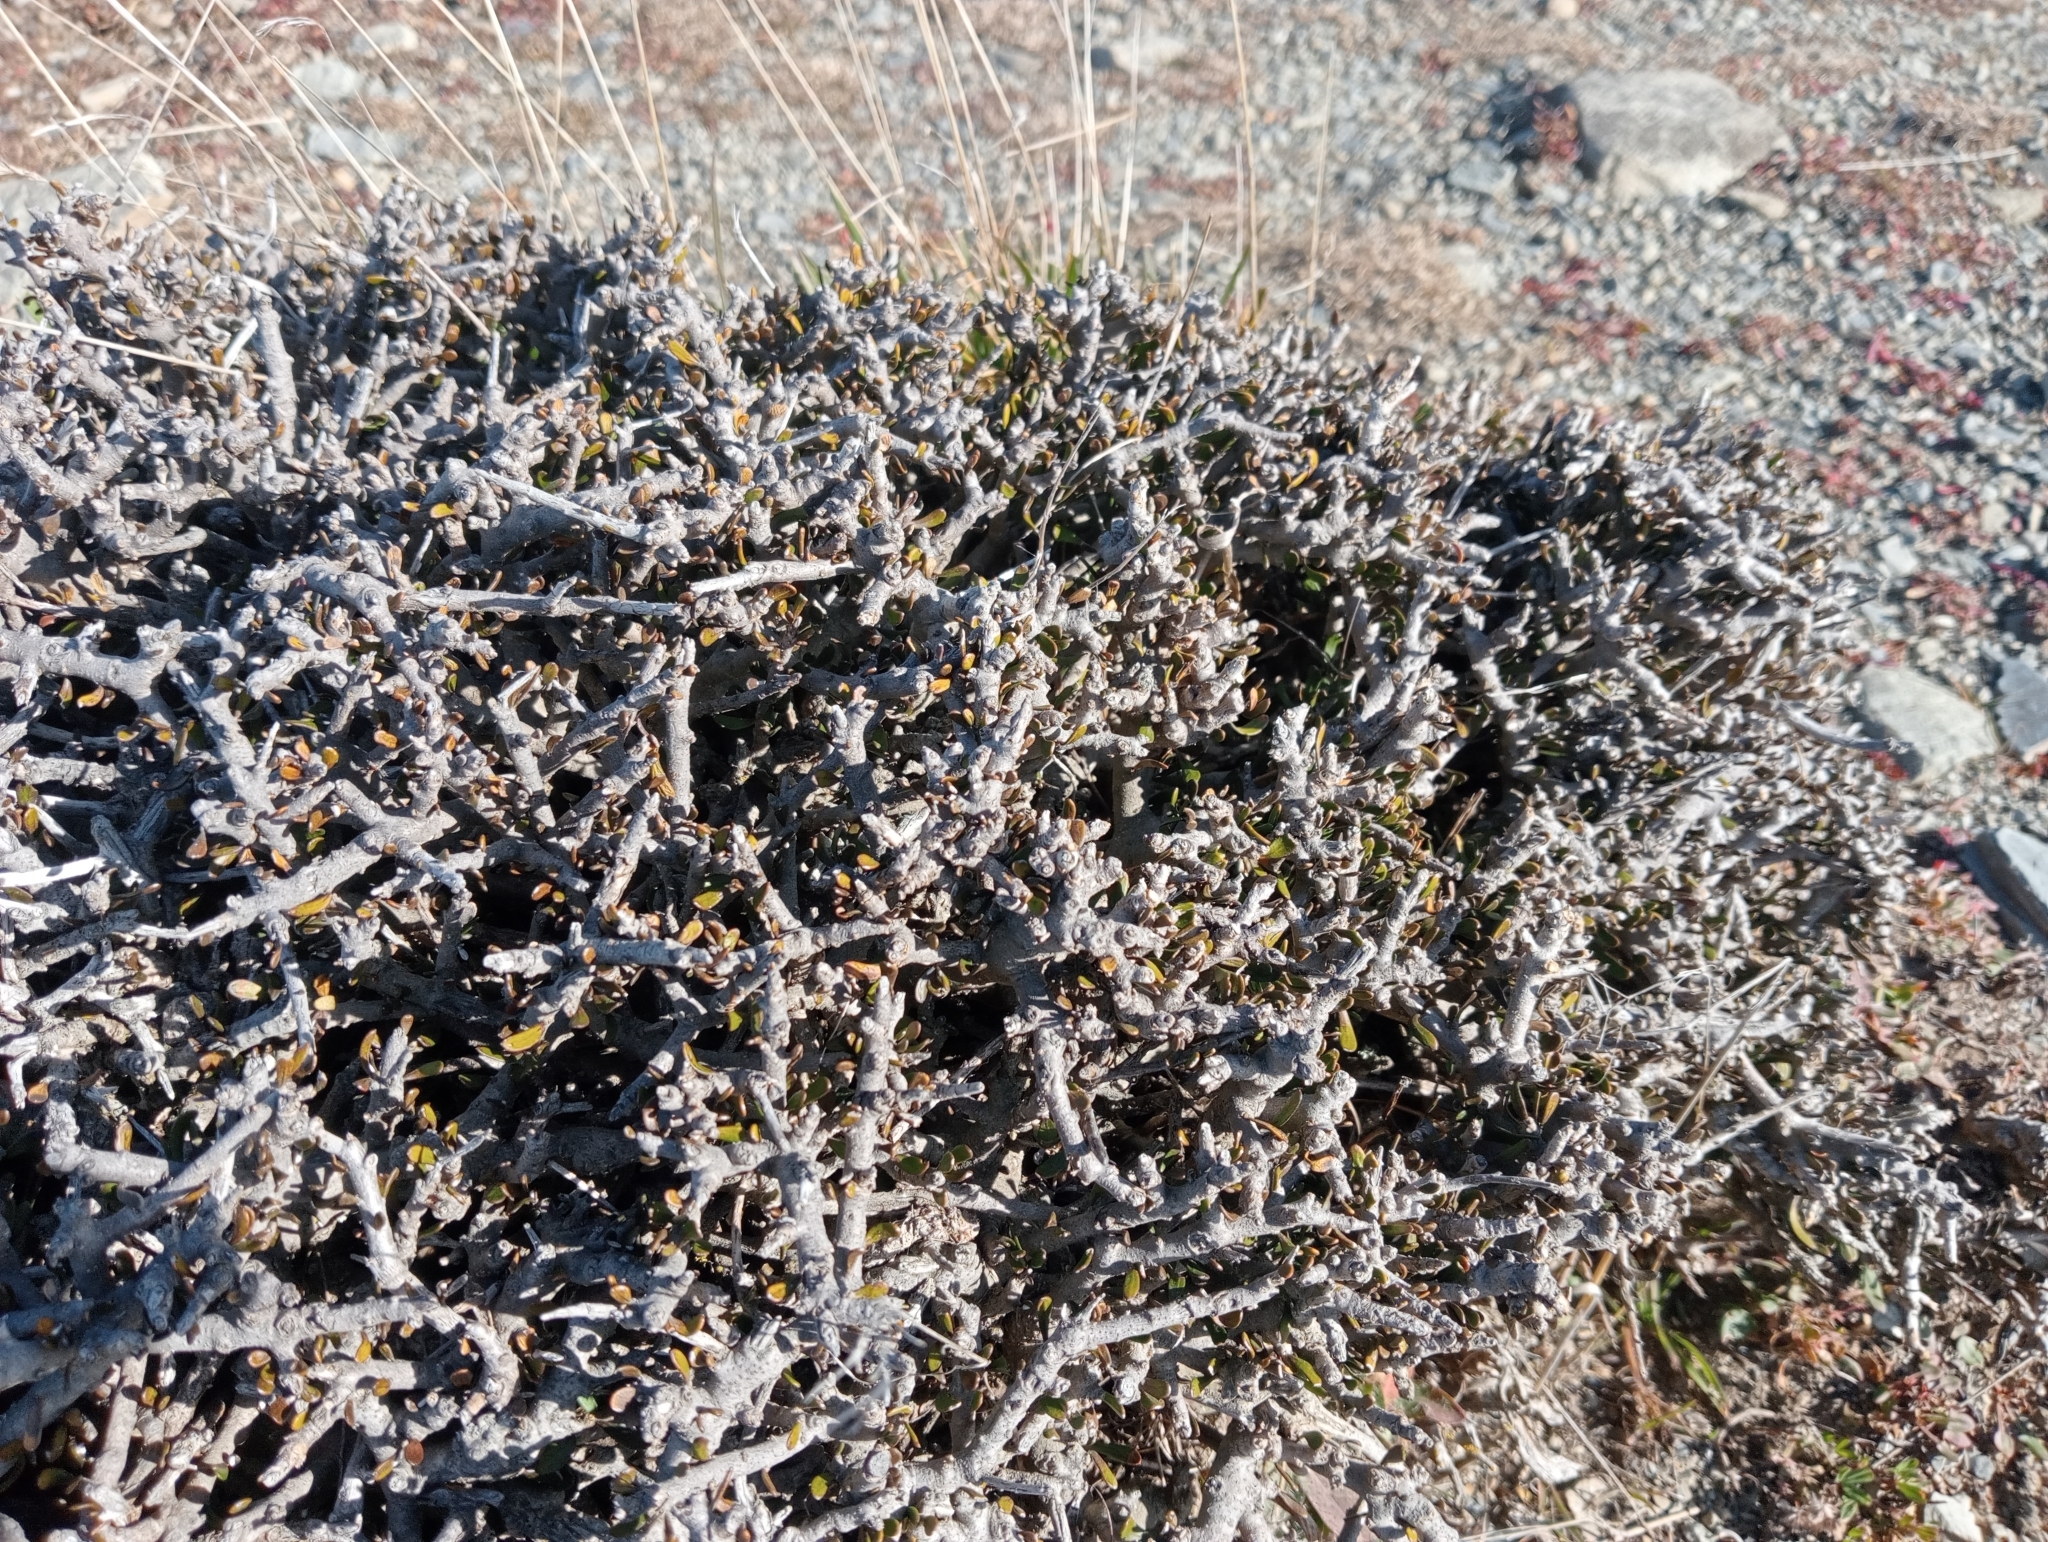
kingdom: Plantae
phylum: Tracheophyta
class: Magnoliopsida
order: Malpighiales
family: Violaceae
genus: Melicytus
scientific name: Melicytus alpinus
